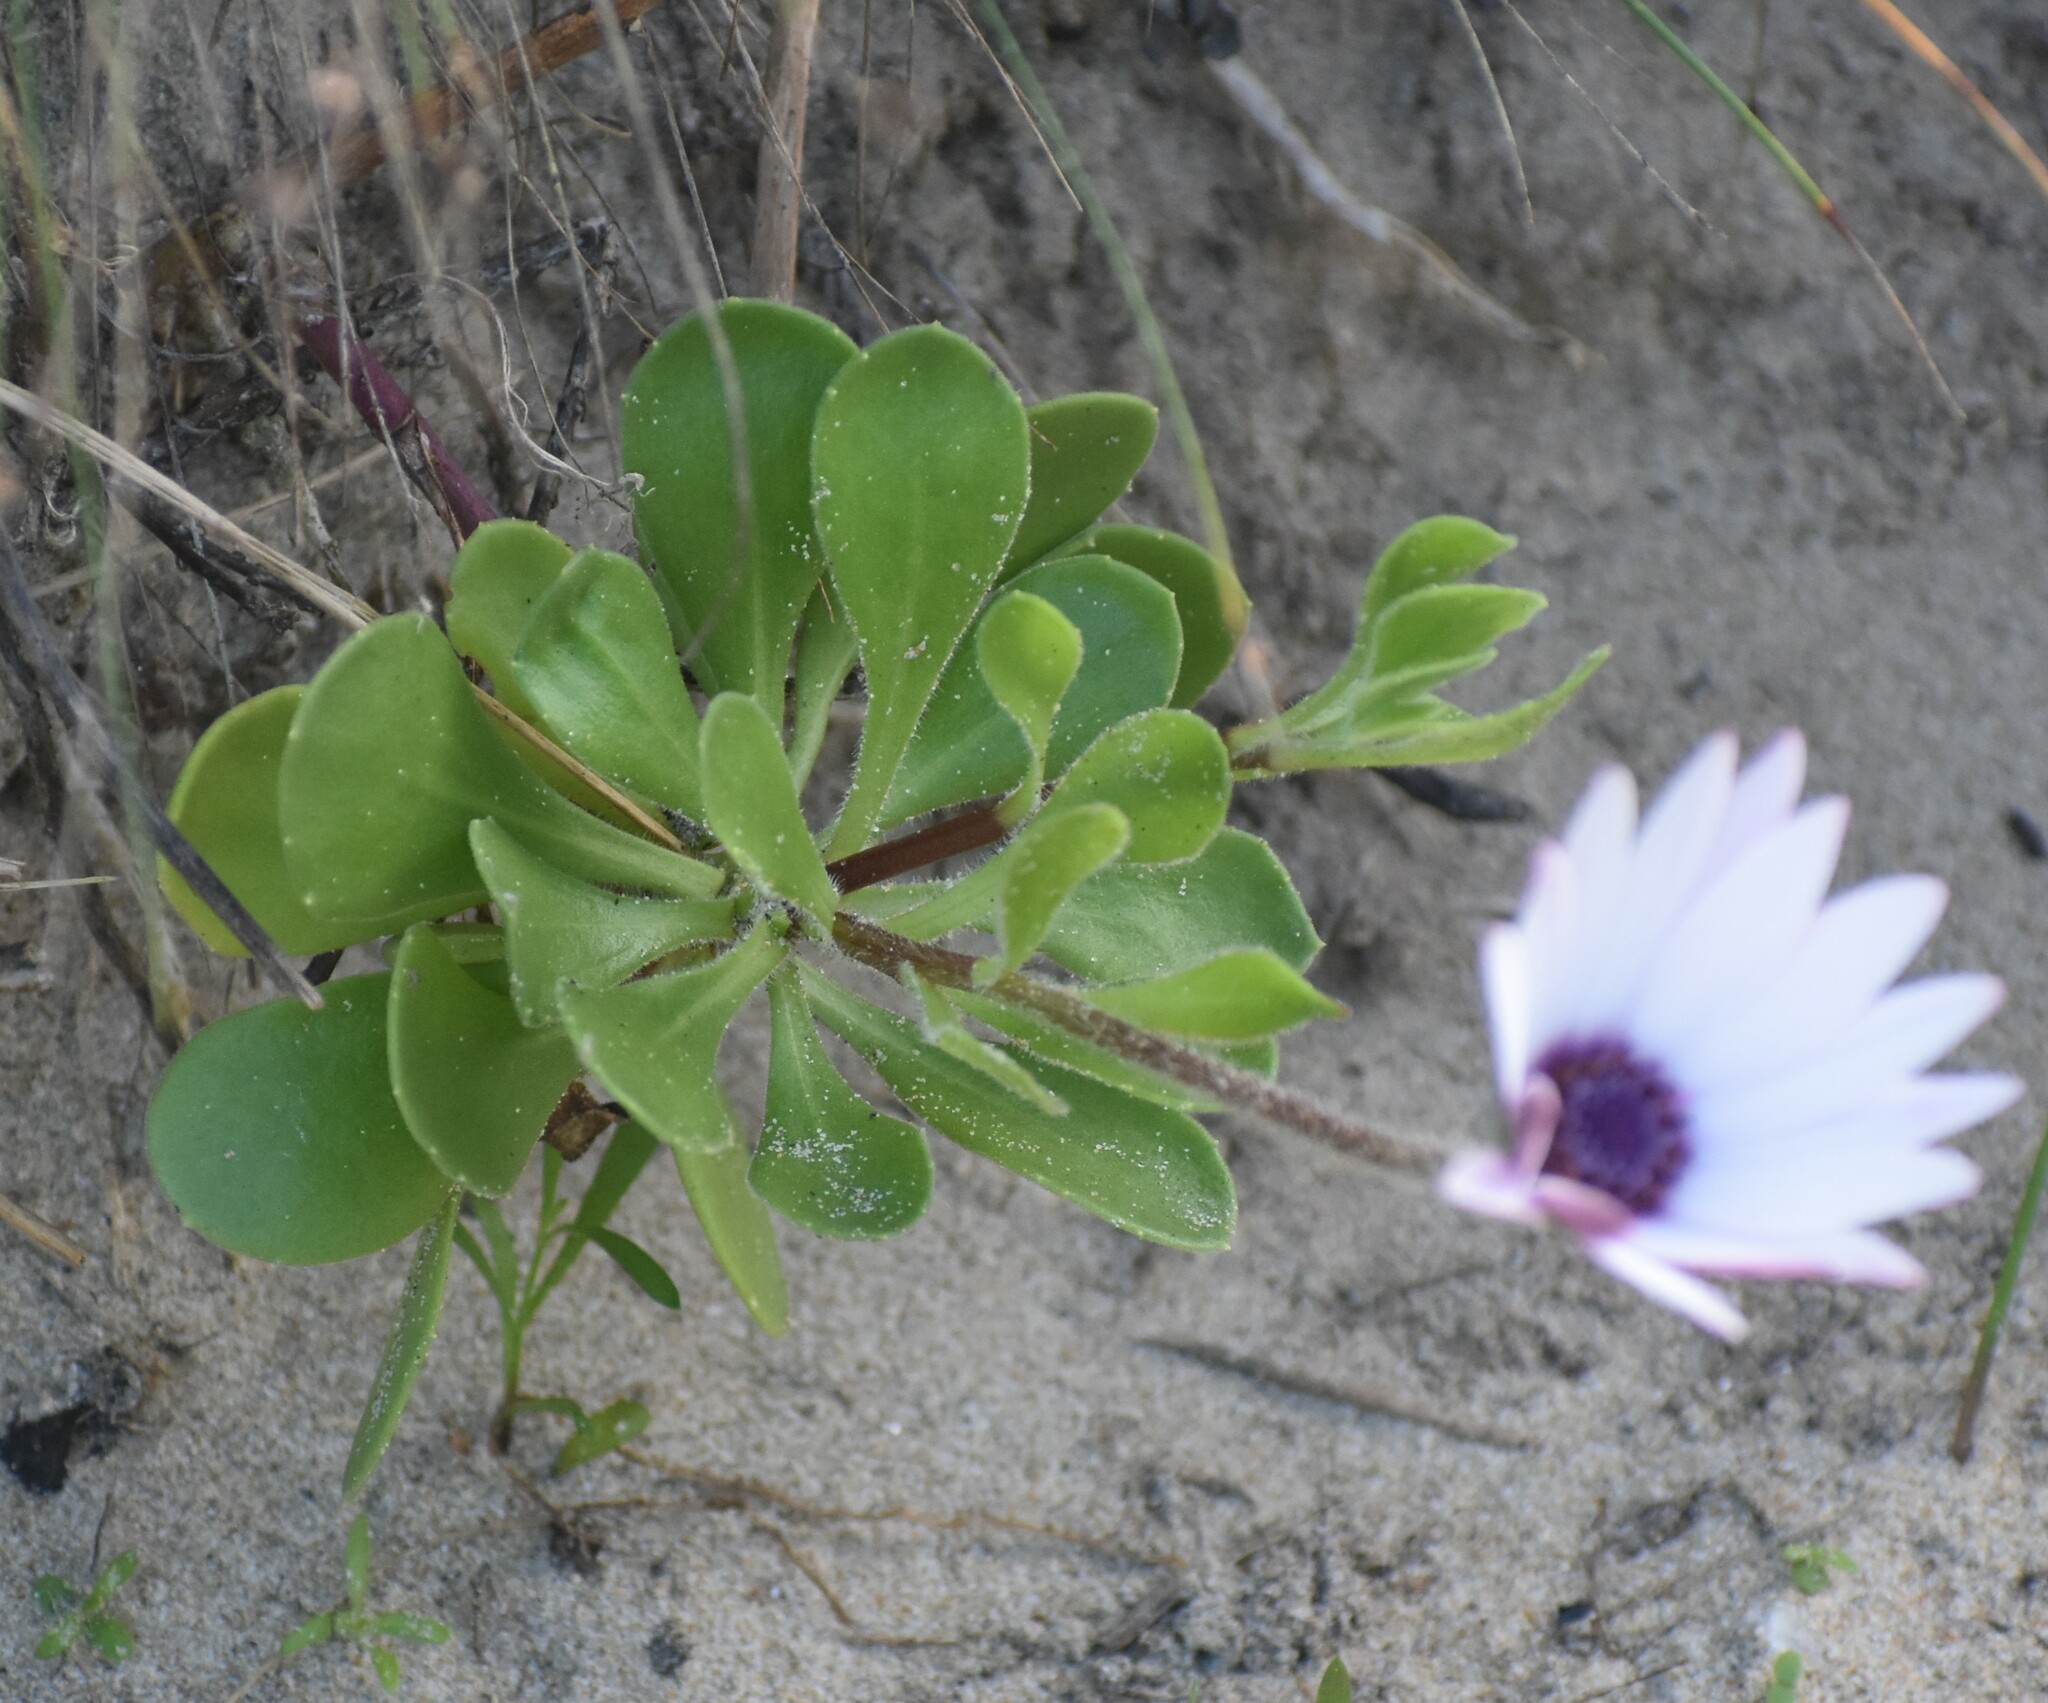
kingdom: Plantae
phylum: Tracheophyta
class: Magnoliopsida
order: Asterales
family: Asteraceae
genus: Dimorphotheca
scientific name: Dimorphotheca fruticosa
